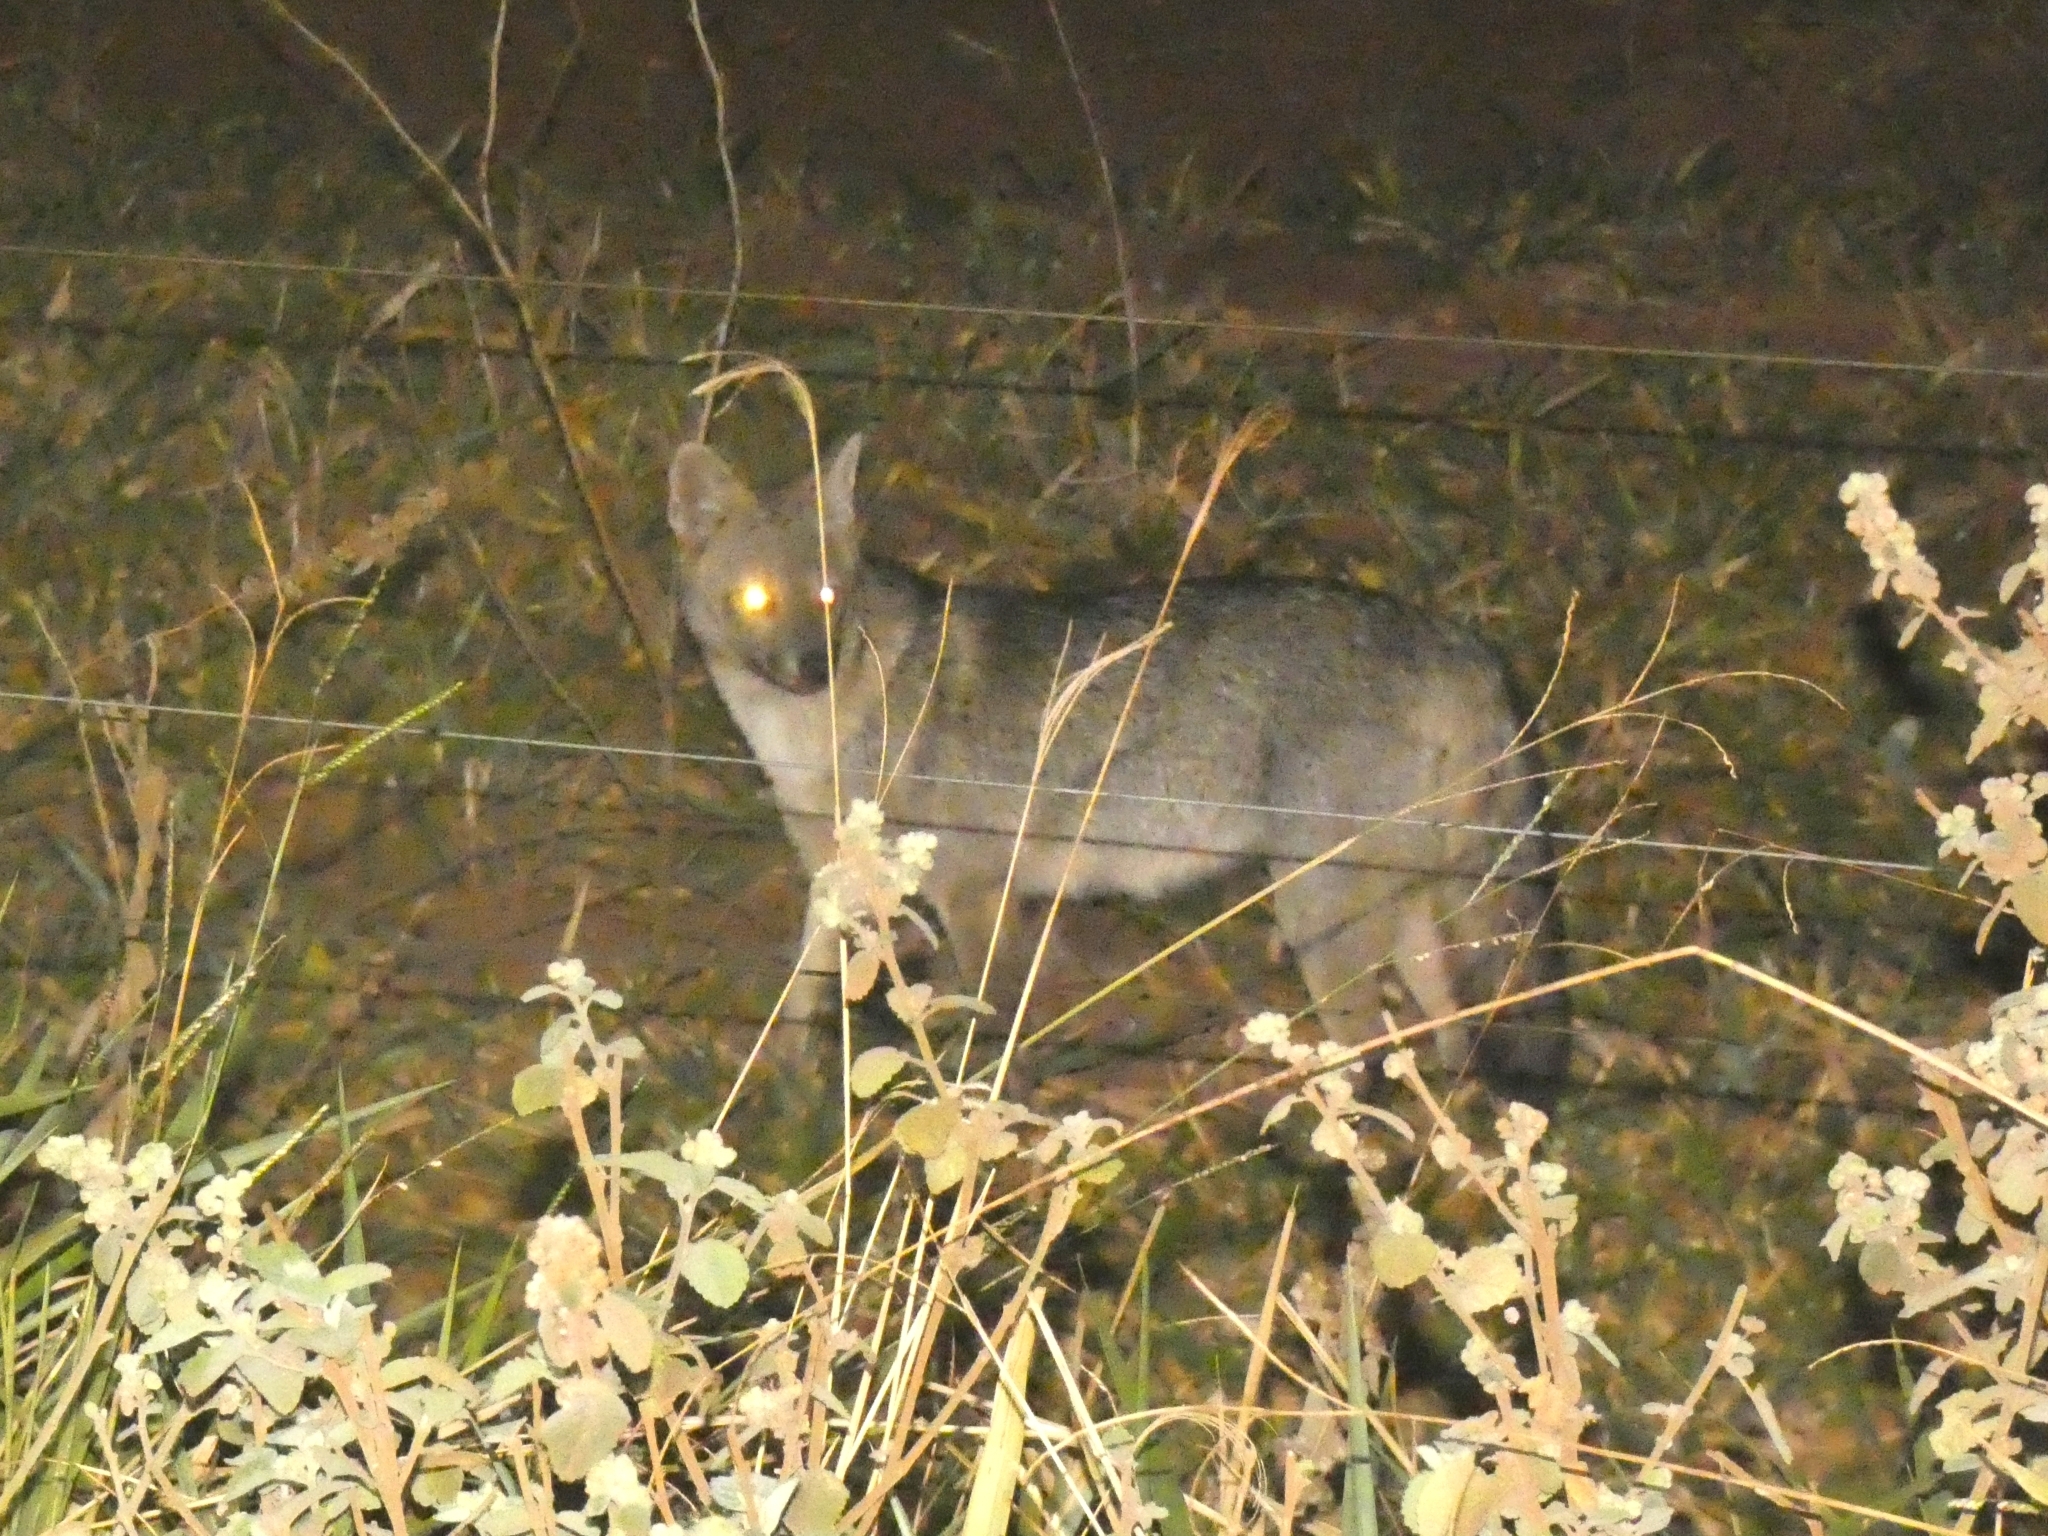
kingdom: Animalia
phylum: Chordata
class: Mammalia
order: Carnivora
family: Canidae
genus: Cerdocyon
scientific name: Cerdocyon thous
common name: Crab-eating fox
